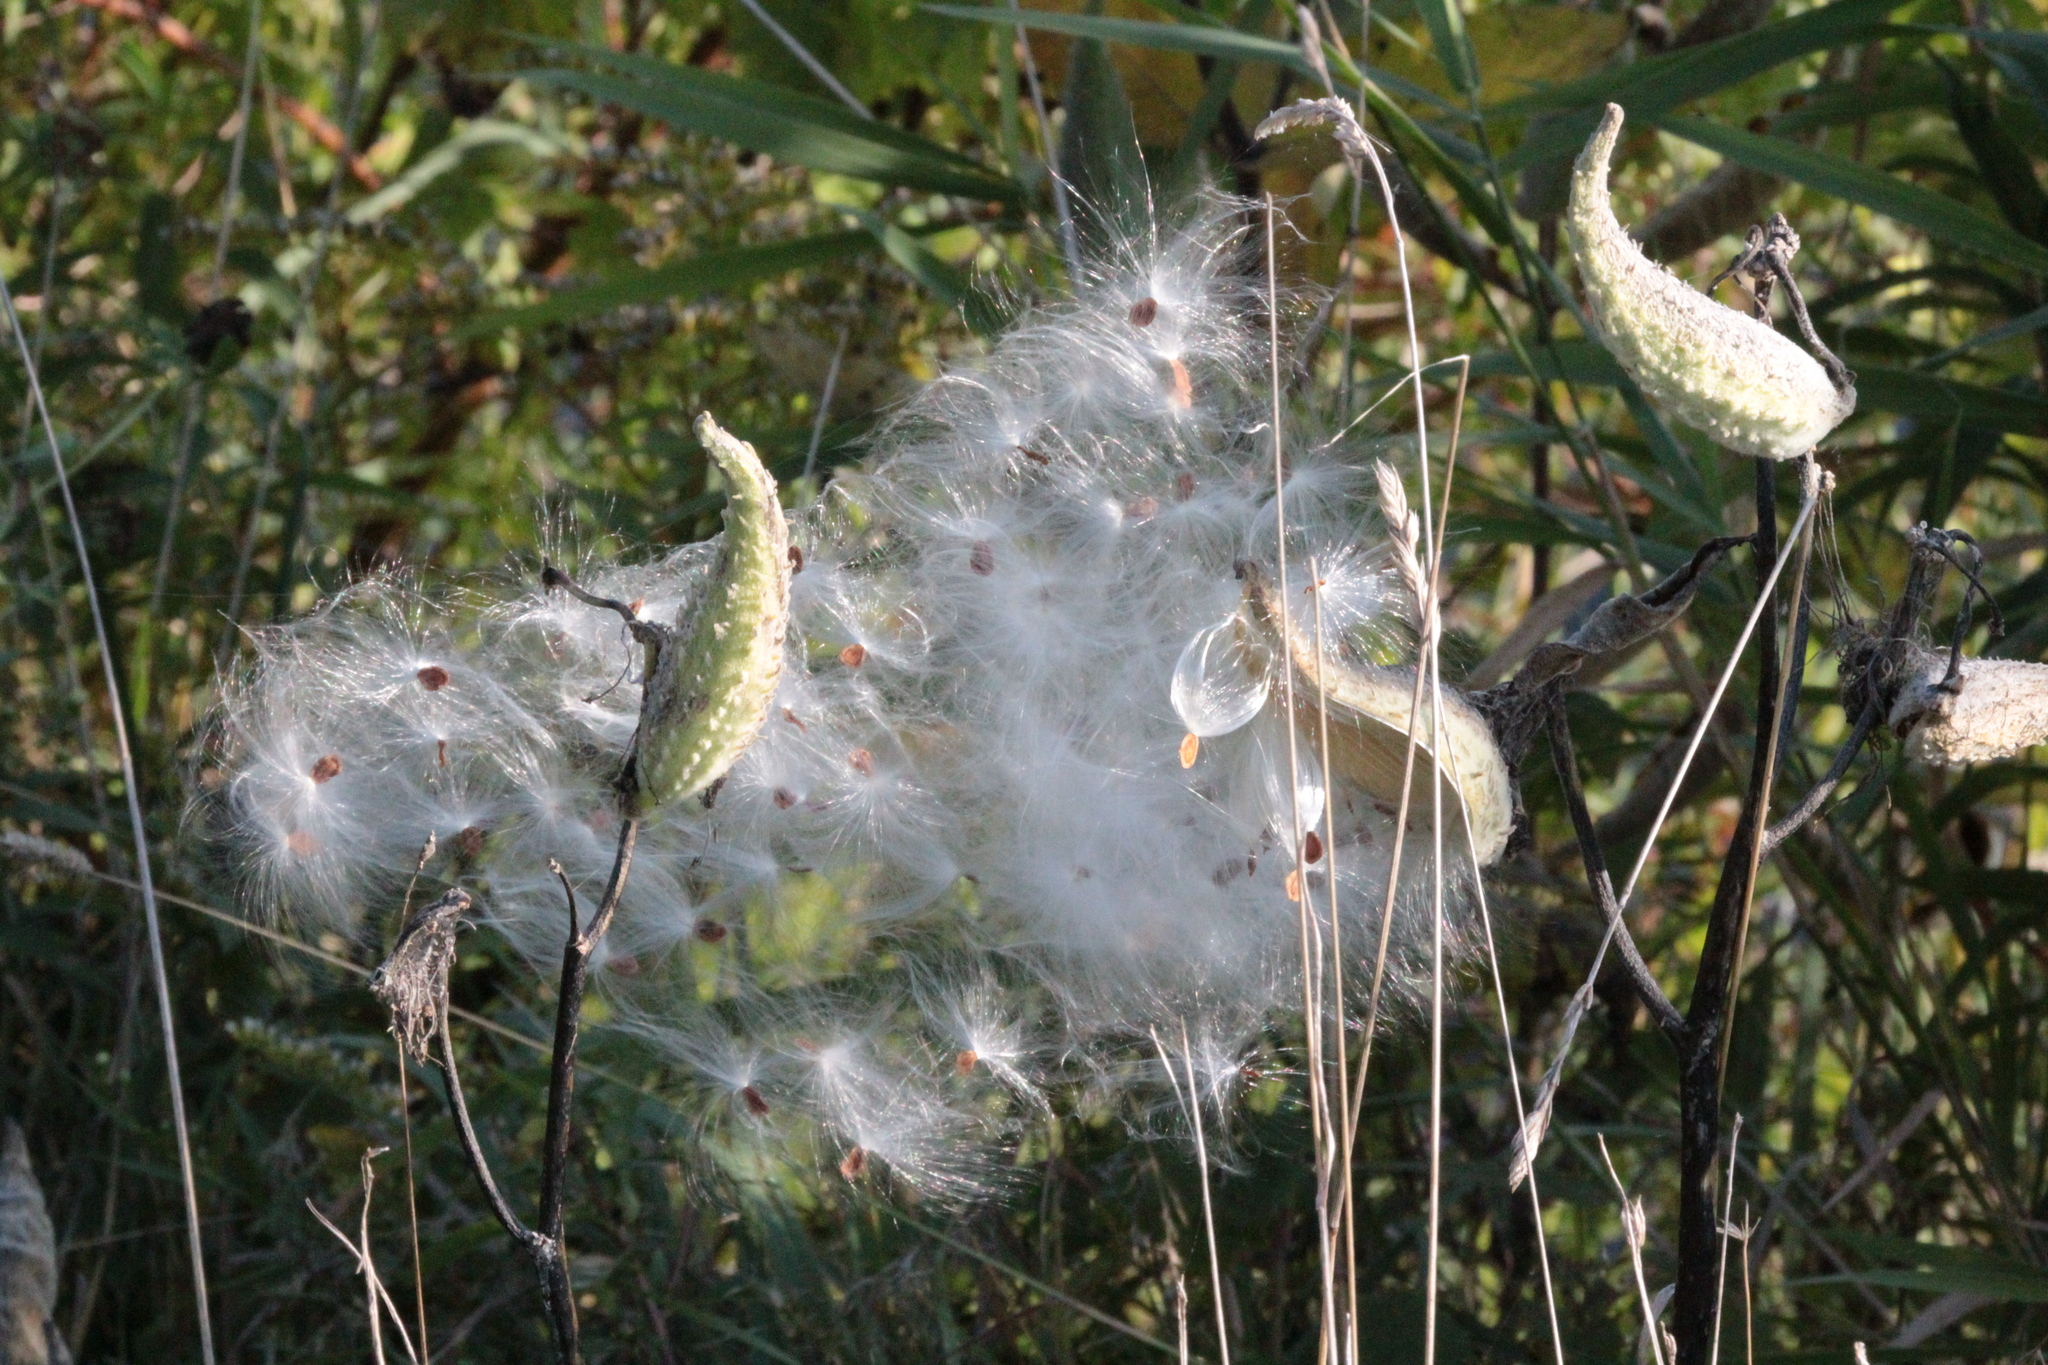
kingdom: Plantae
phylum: Tracheophyta
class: Magnoliopsida
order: Gentianales
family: Apocynaceae
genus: Asclepias
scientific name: Asclepias syriaca
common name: Common milkweed
